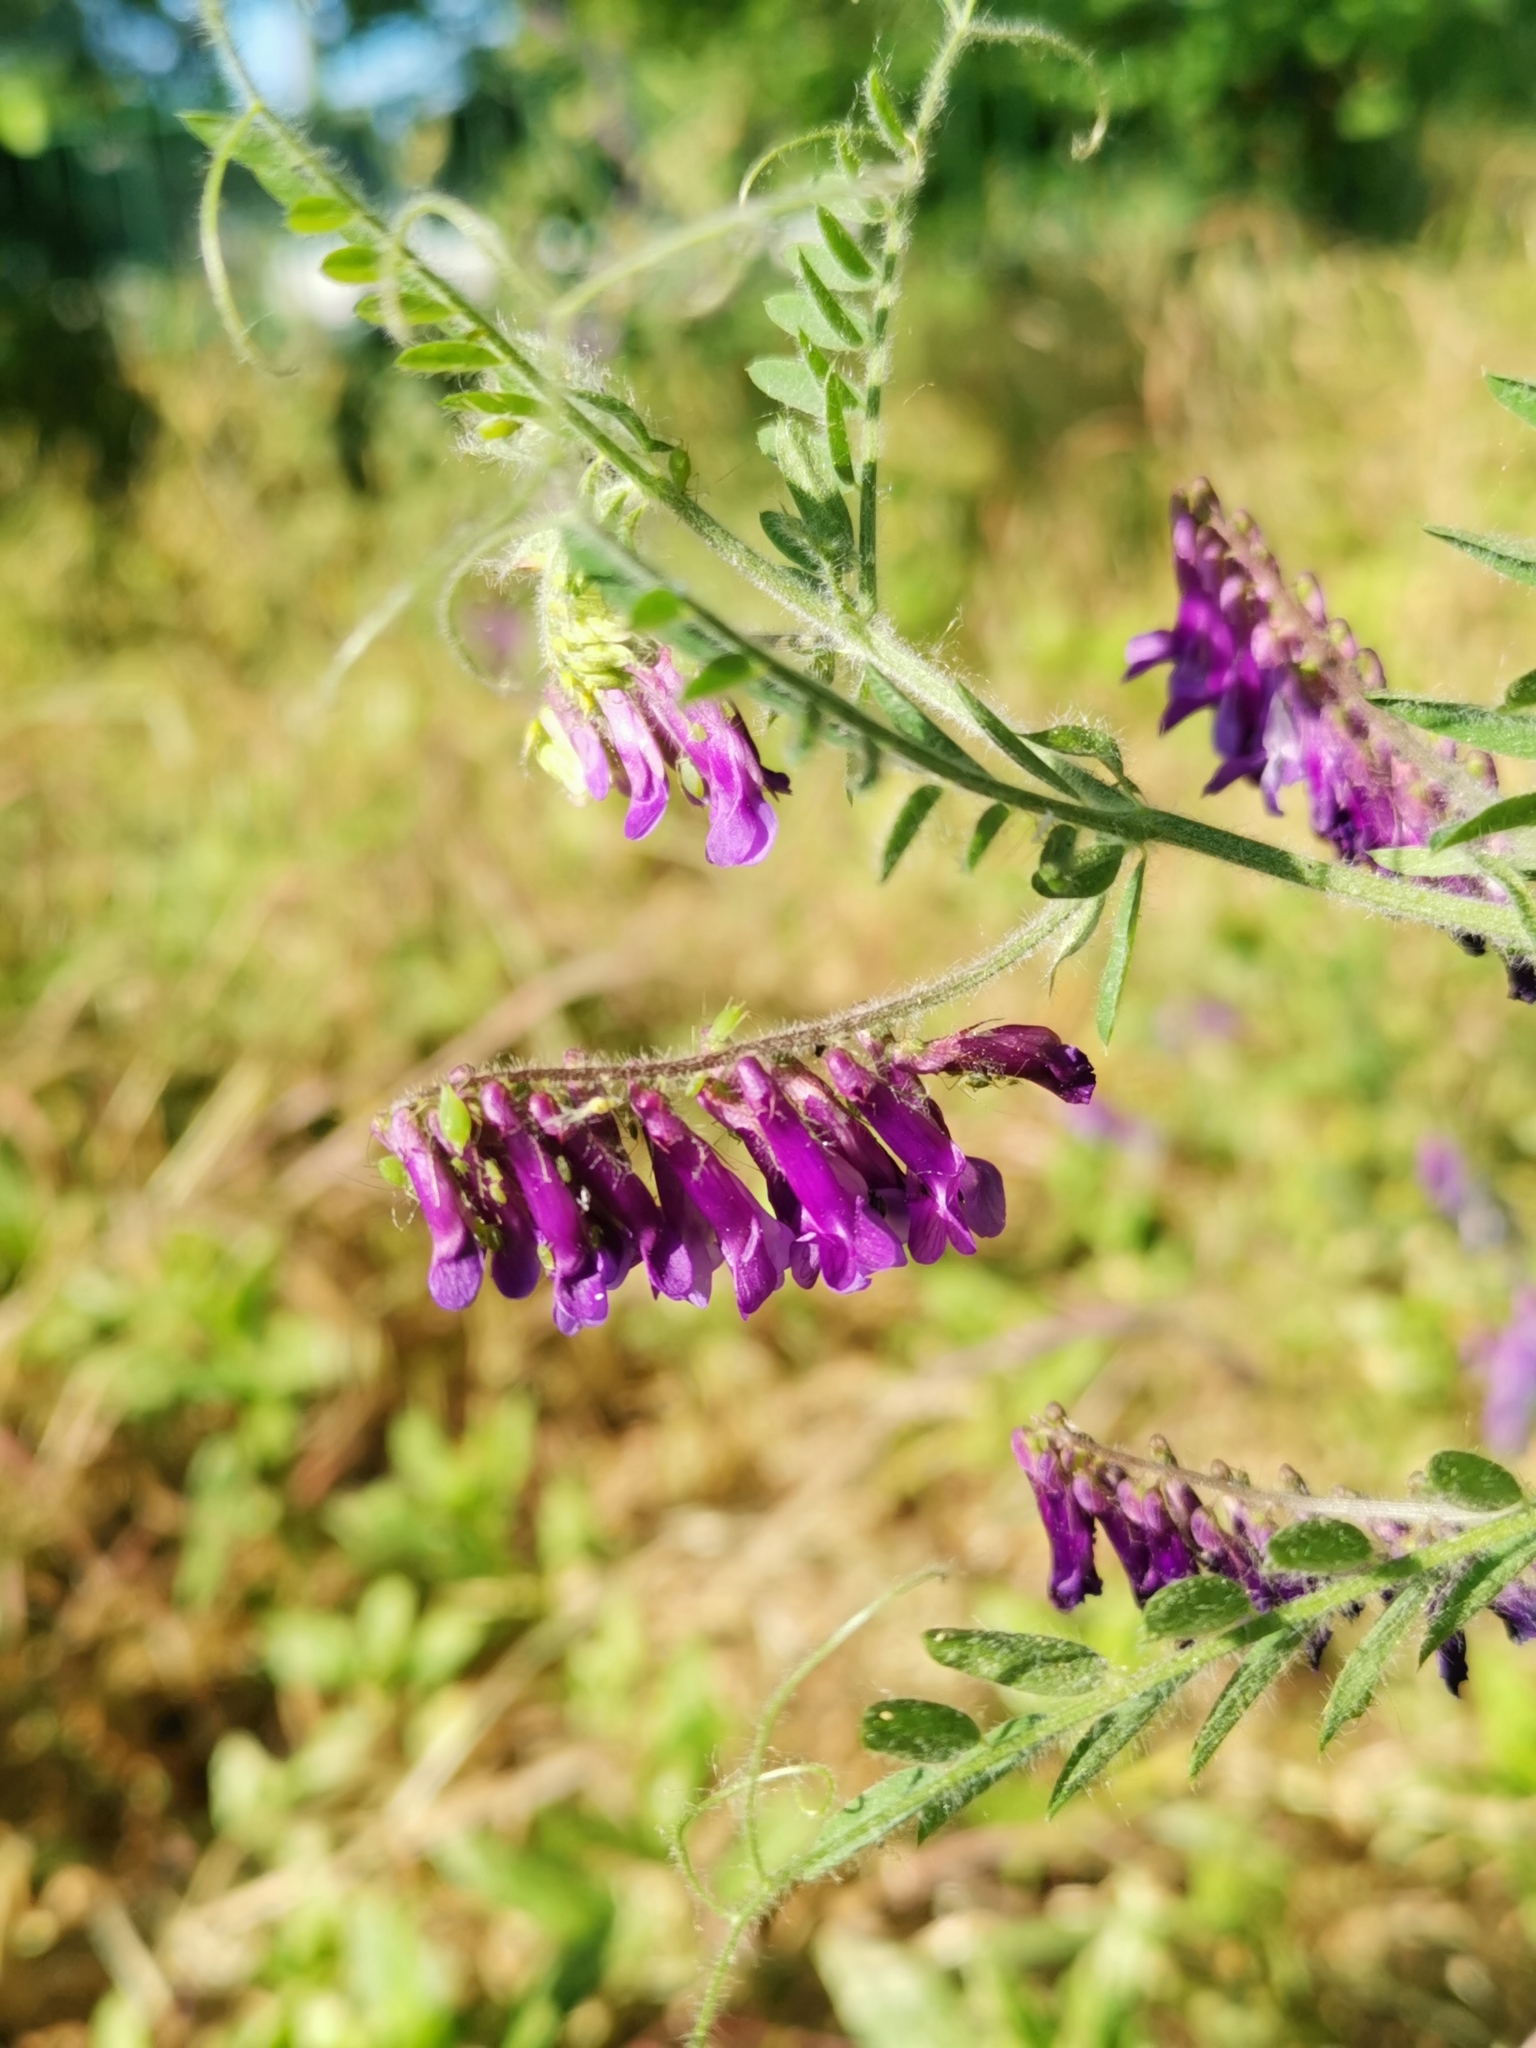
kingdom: Plantae
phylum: Tracheophyta
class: Magnoliopsida
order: Fabales
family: Fabaceae
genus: Vicia
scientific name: Vicia villosa
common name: Fodder vetch
